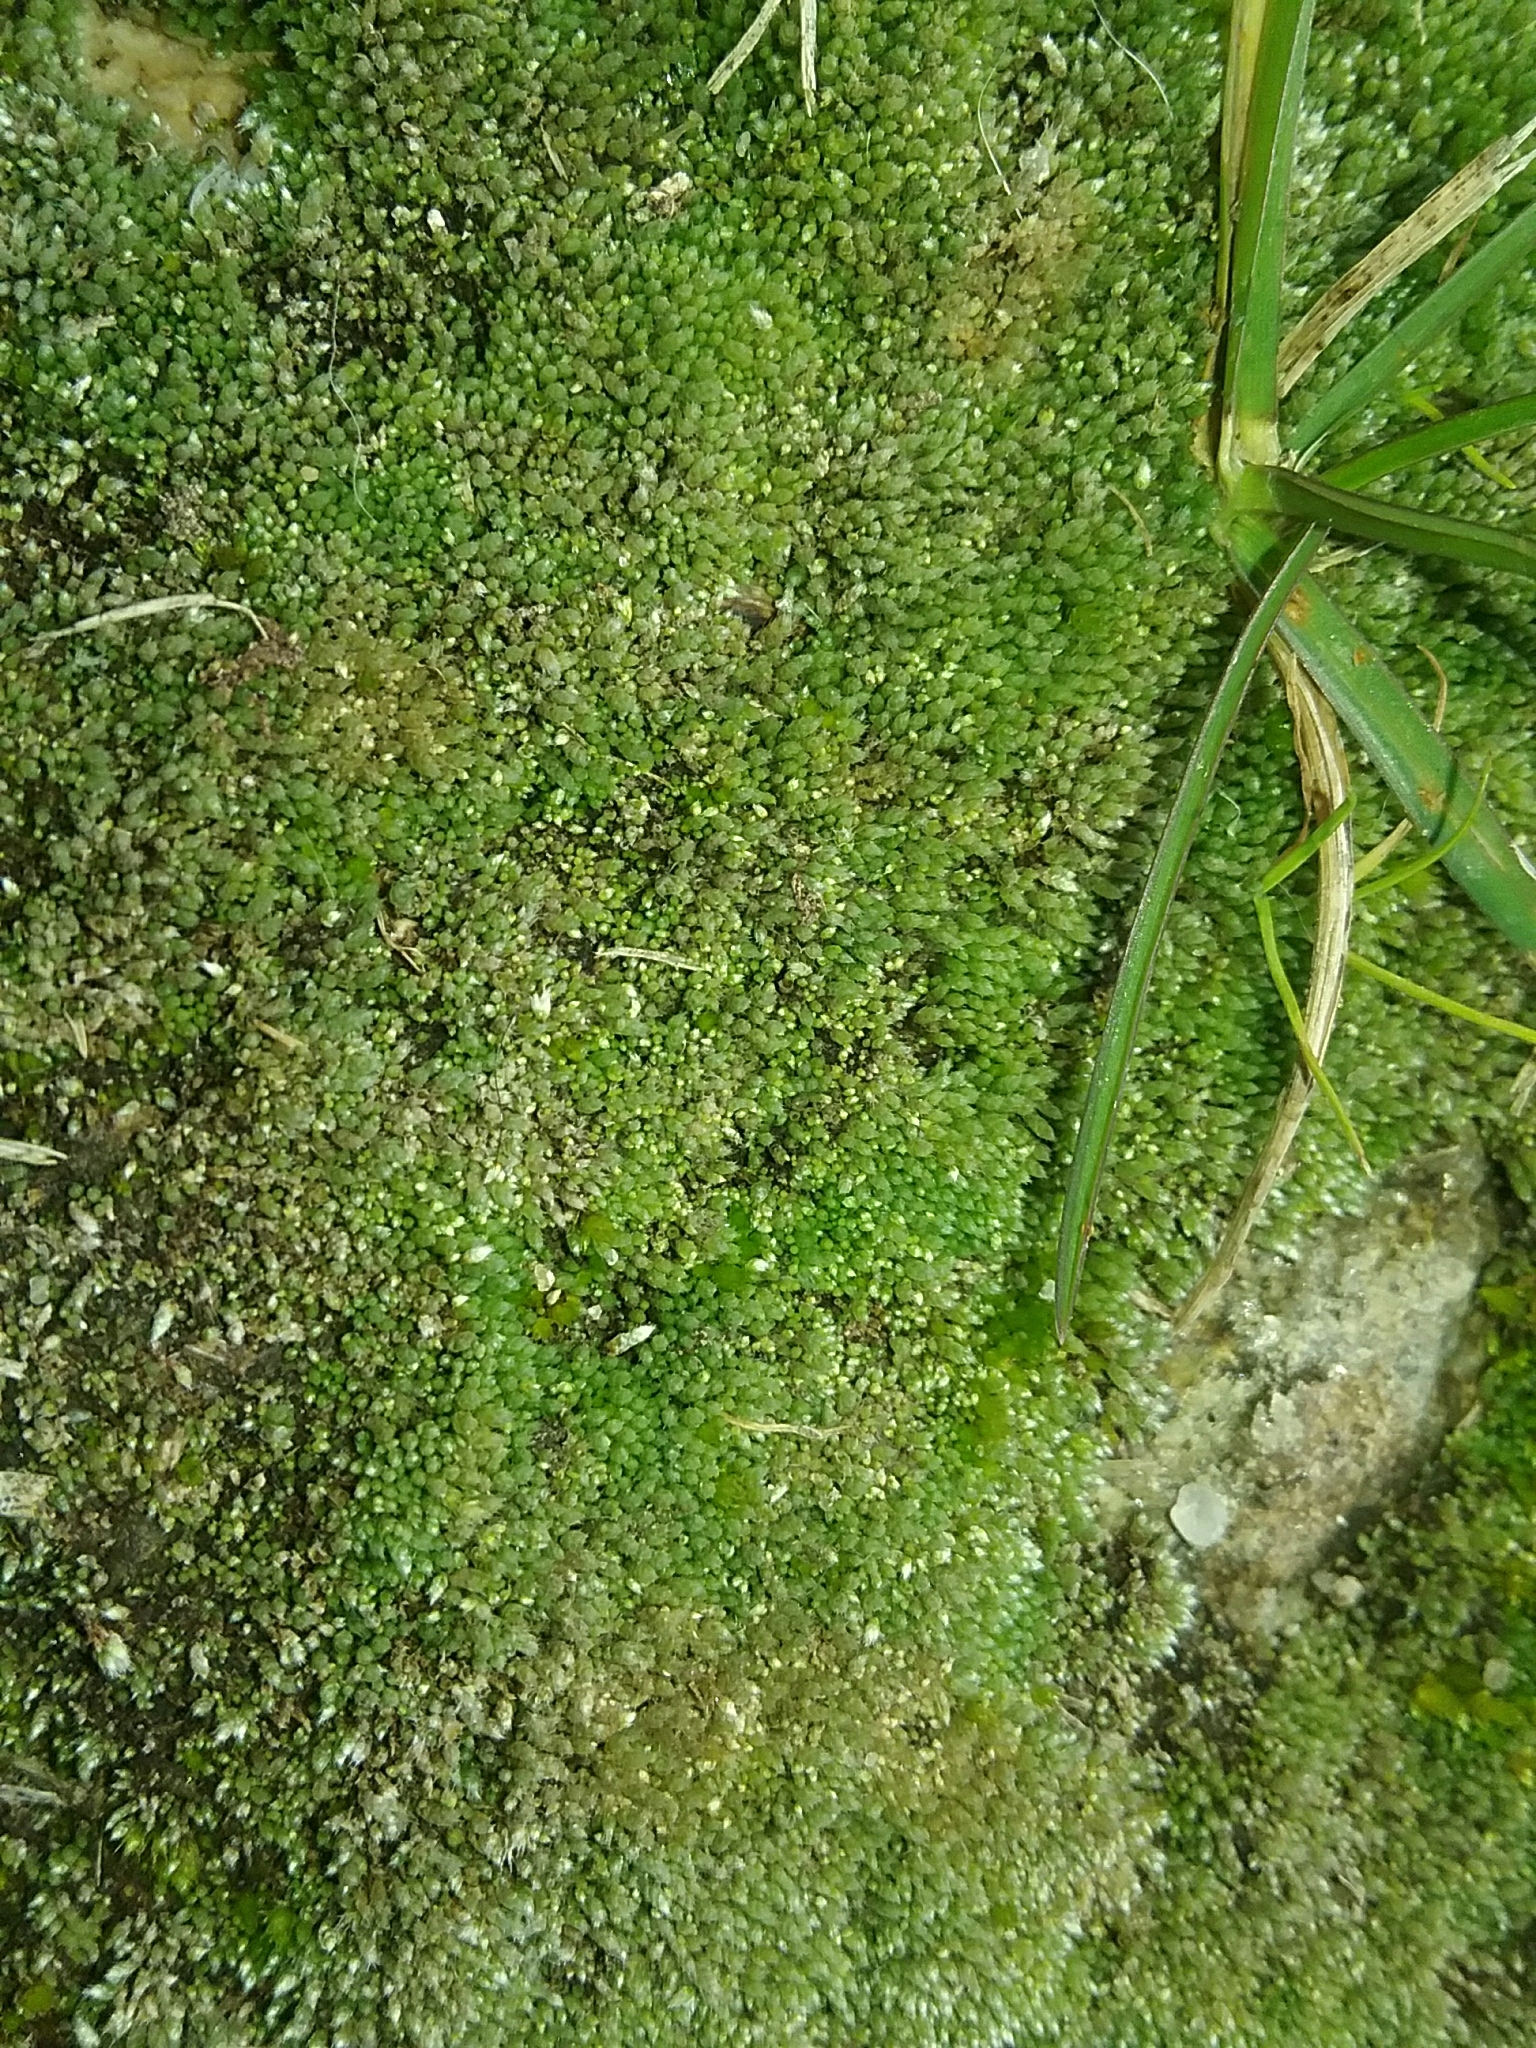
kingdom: Plantae
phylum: Bryophyta
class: Bryopsida
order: Bryales
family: Bryaceae
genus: Bryum
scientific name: Bryum argenteum
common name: Silver-moss
